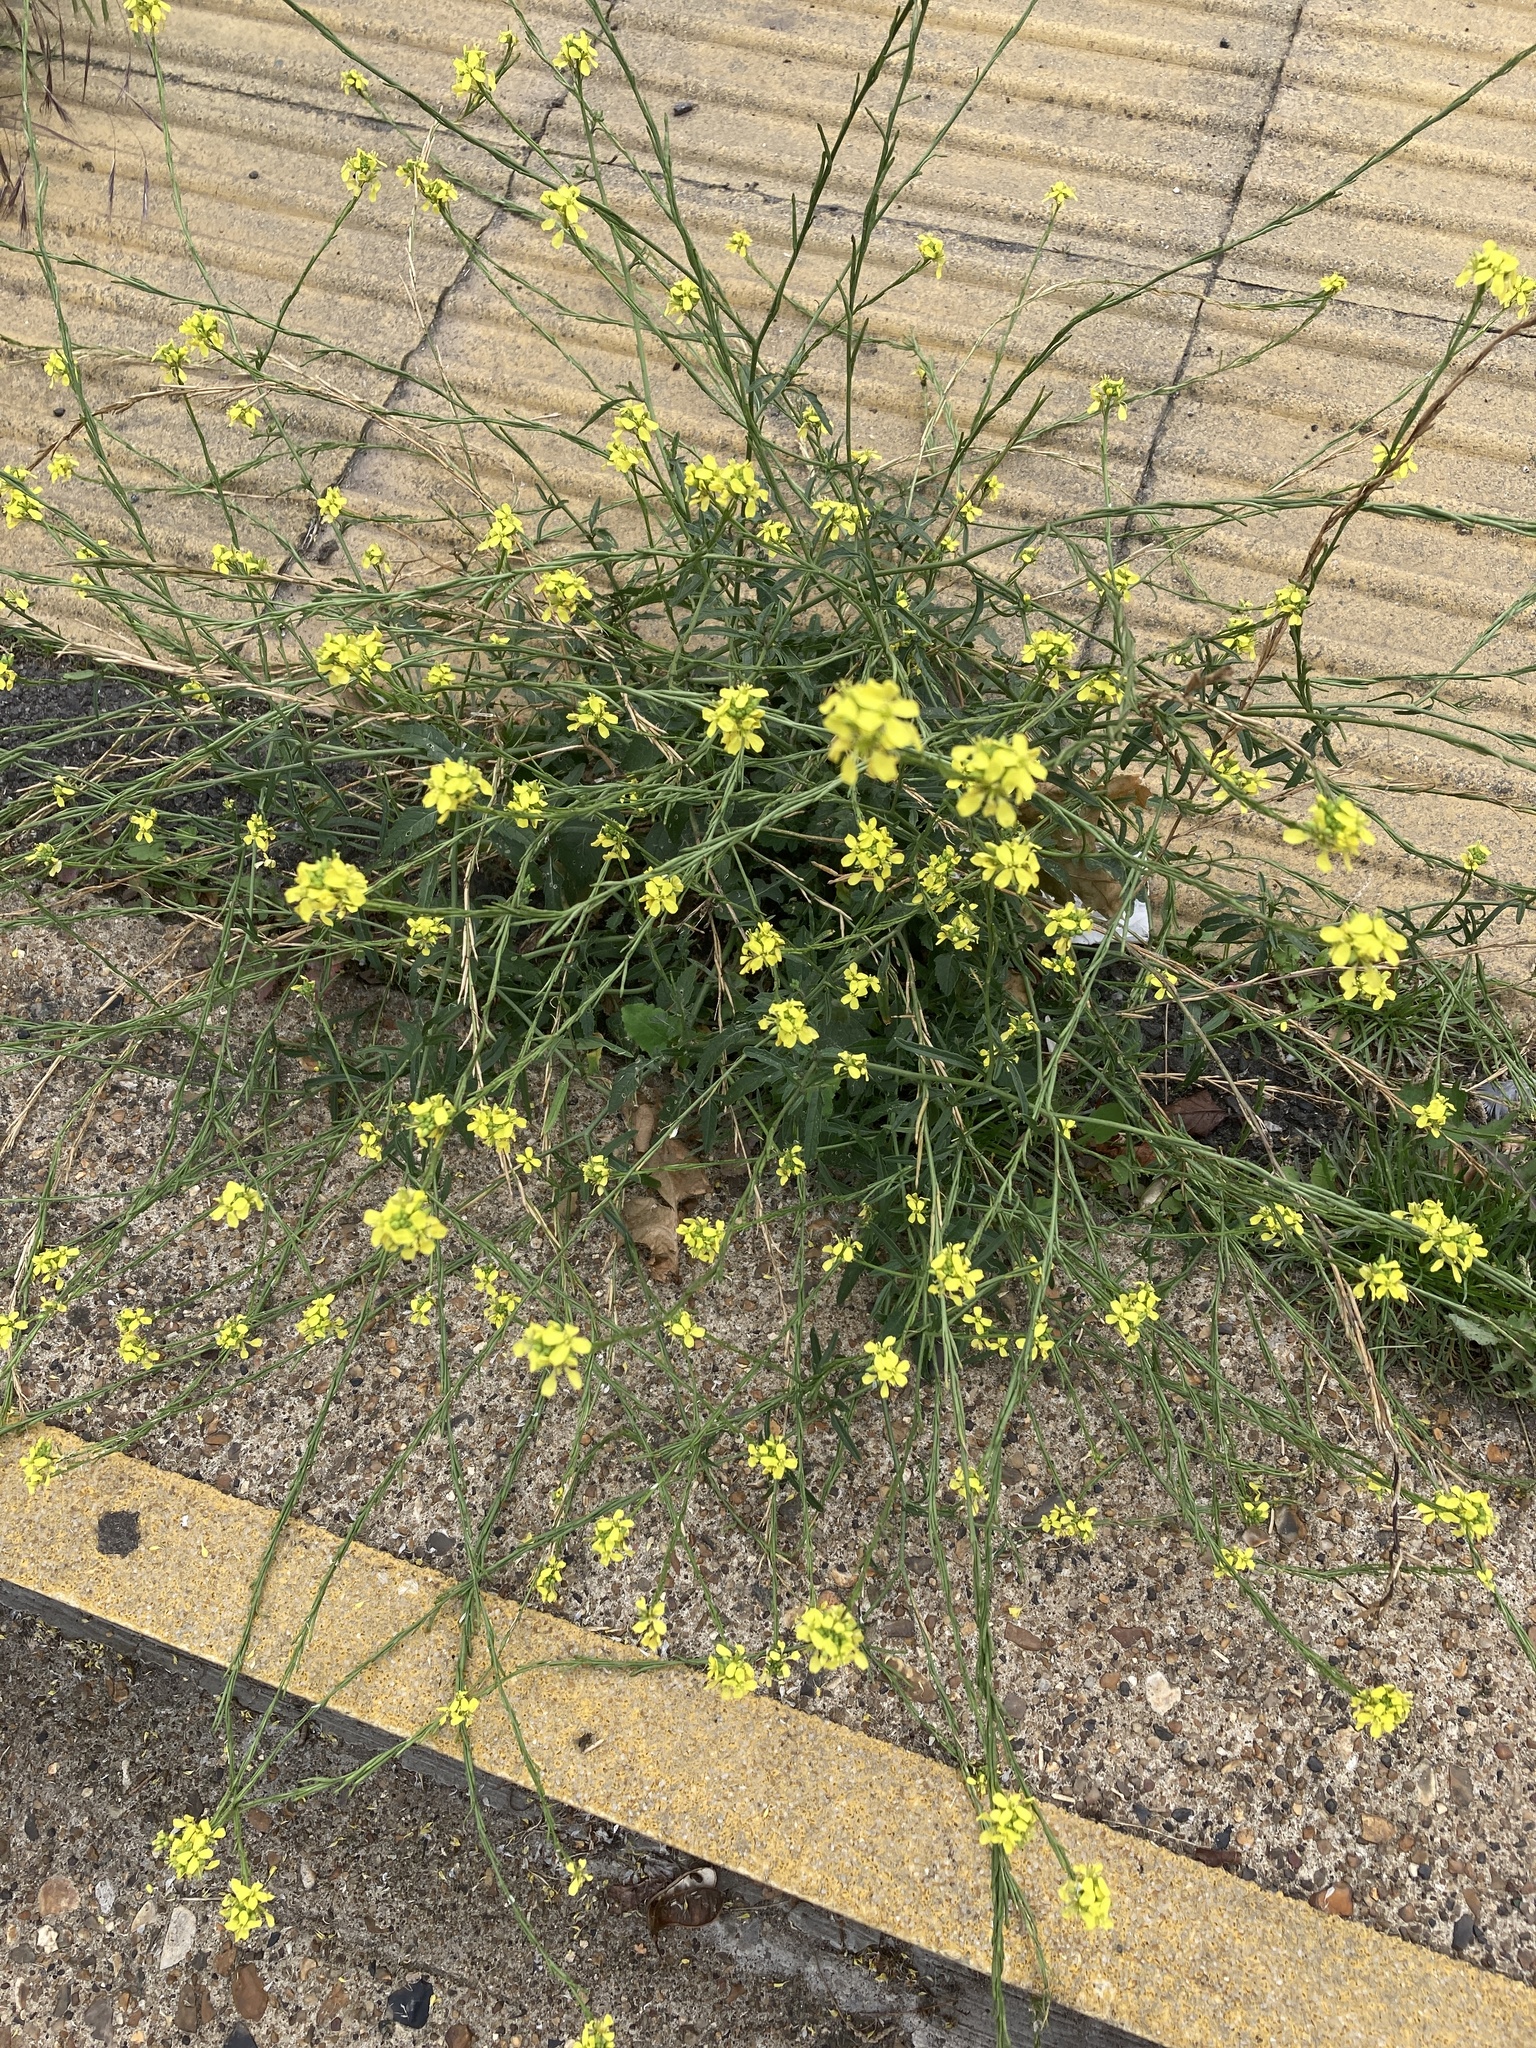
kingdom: Plantae
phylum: Tracheophyta
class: Magnoliopsida
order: Brassicales
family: Brassicaceae
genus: Hirschfeldia
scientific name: Hirschfeldia incana
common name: Hoary mustard
